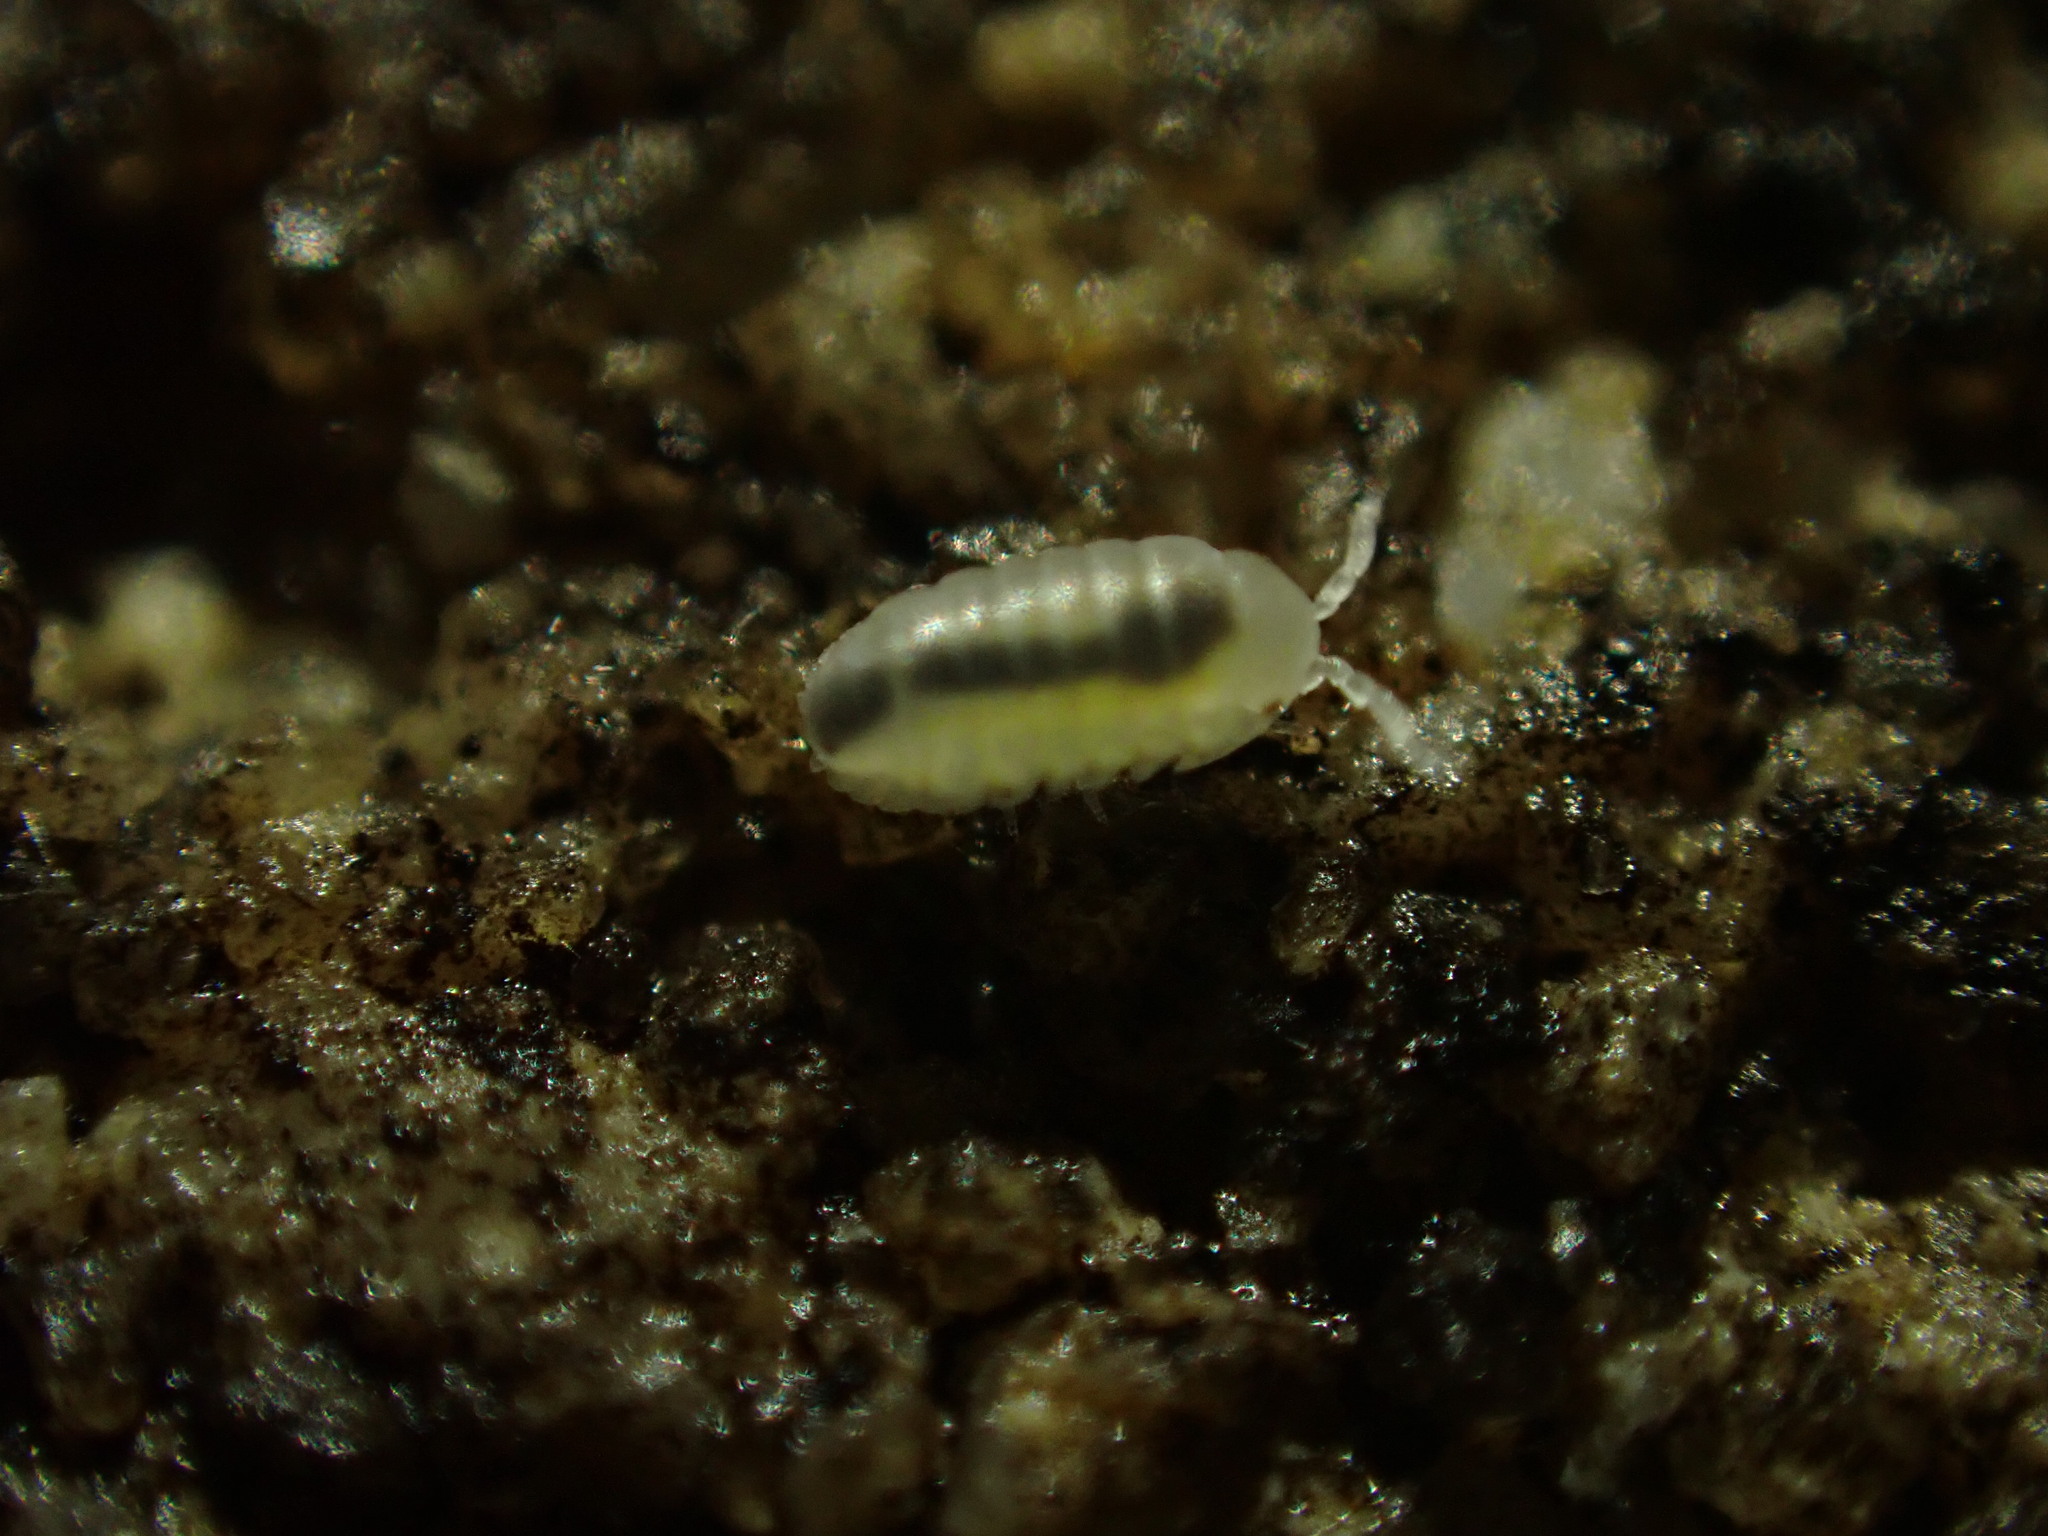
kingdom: Animalia
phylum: Arthropoda
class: Malacostraca
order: Isopoda
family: Armadillidiidae
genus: Armadillidium
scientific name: Armadillidium vulgare
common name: Common pill woodlouse
